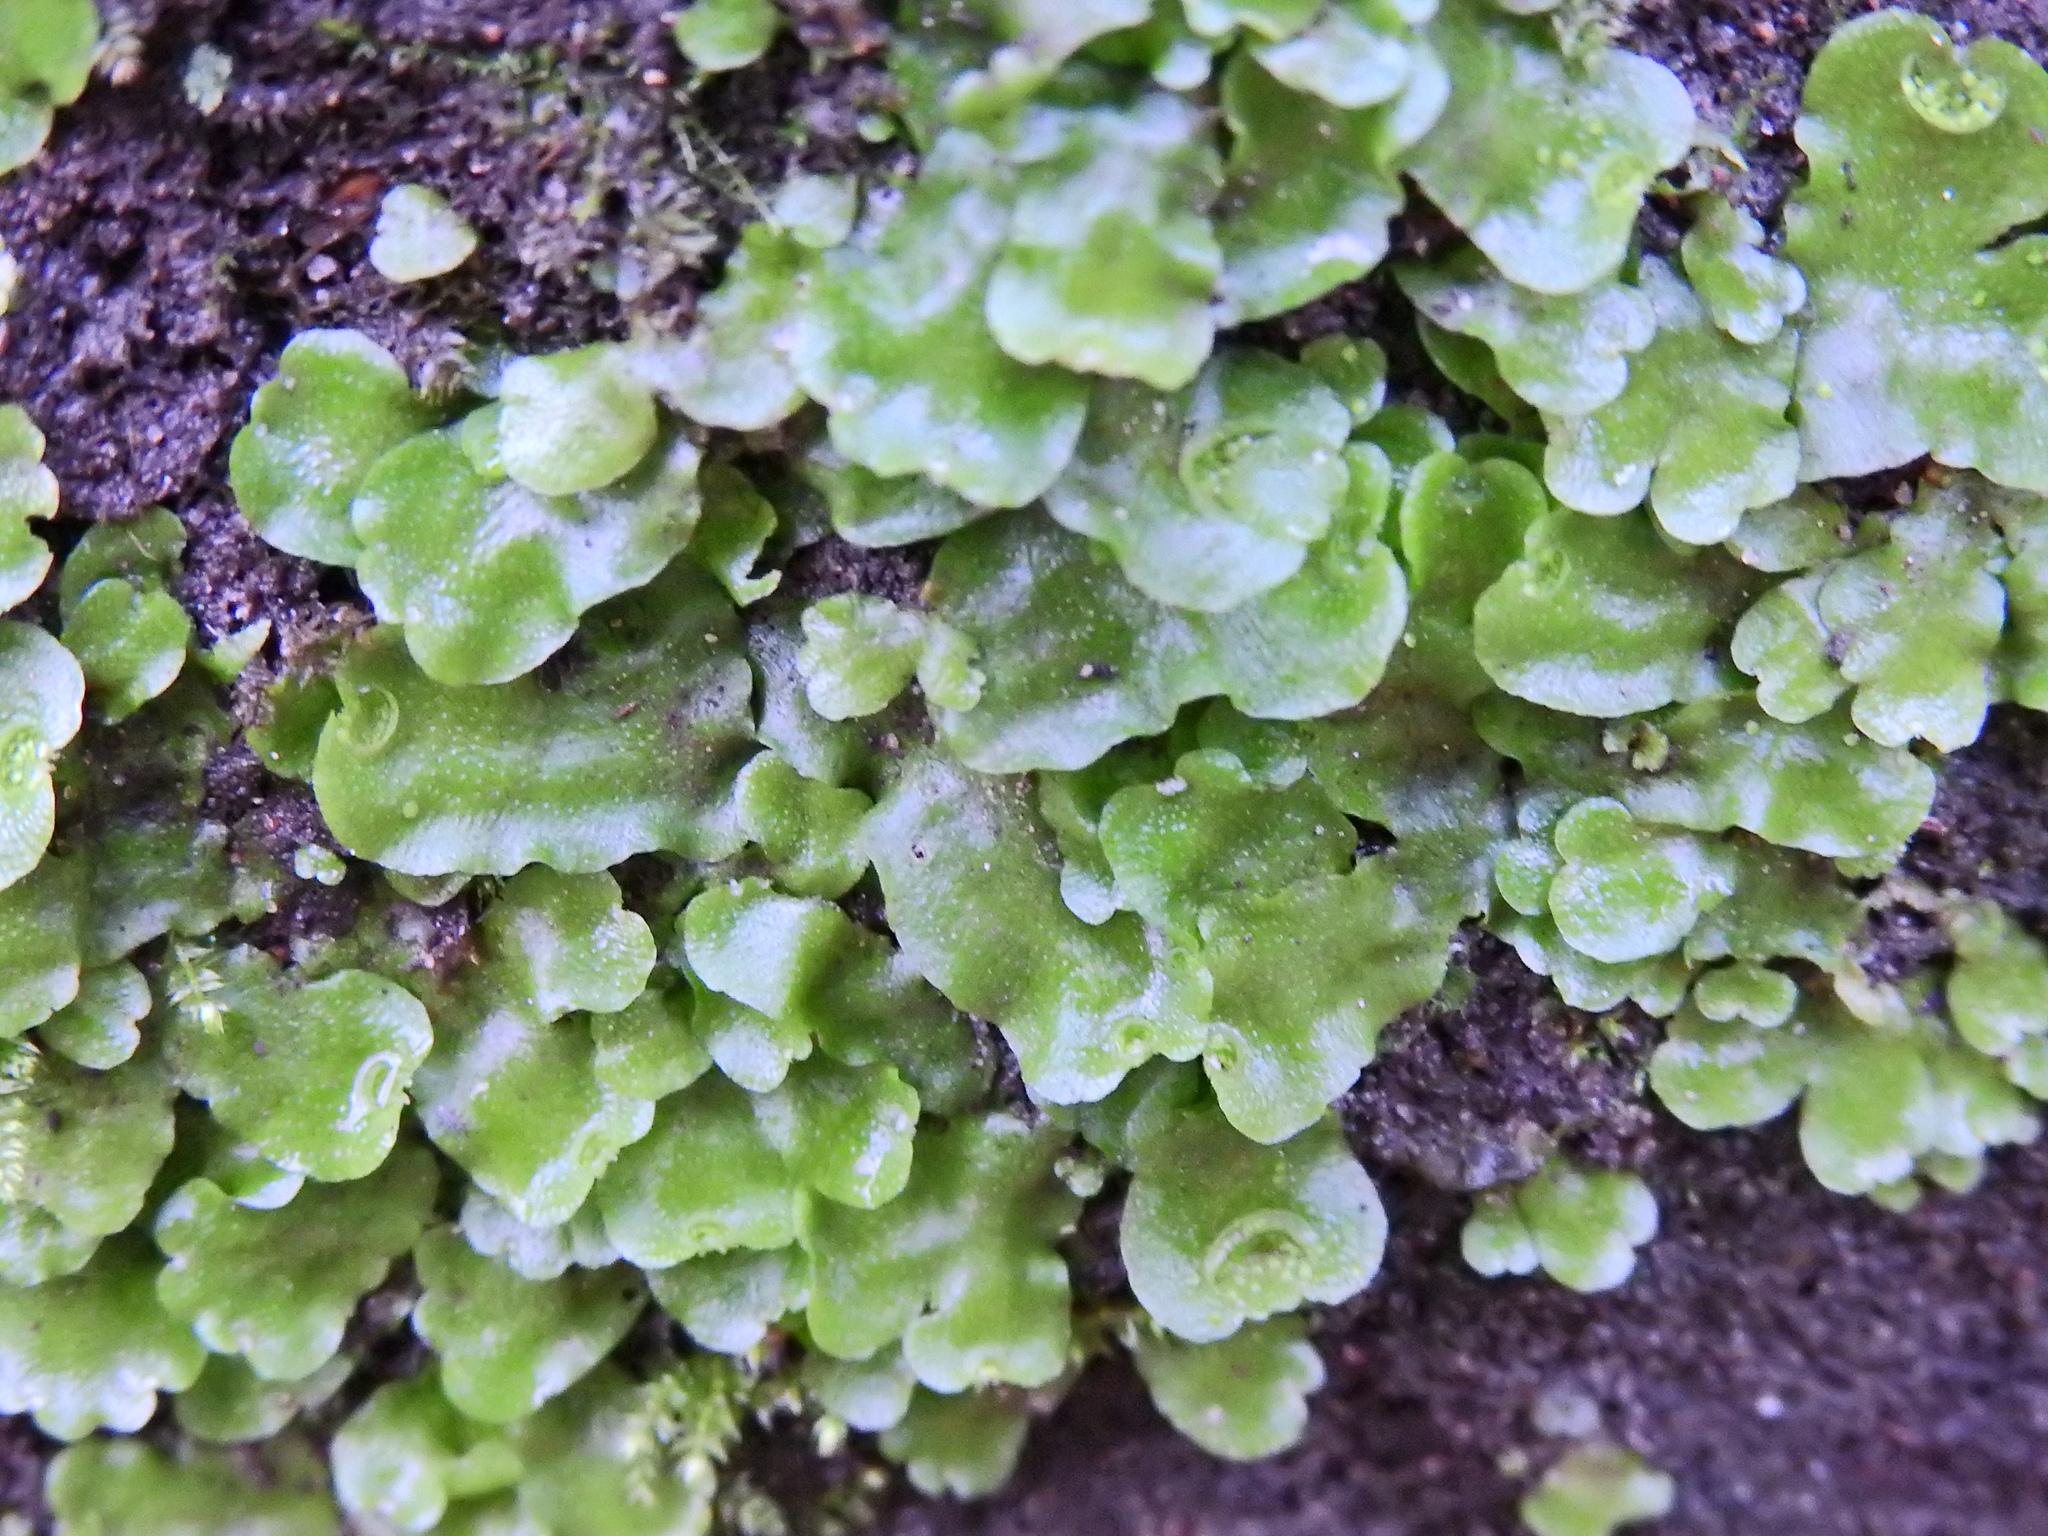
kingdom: Plantae
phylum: Marchantiophyta
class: Marchantiopsida
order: Lunulariales
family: Lunulariaceae
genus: Lunularia
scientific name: Lunularia cruciata
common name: Crescent-cup liverwort
